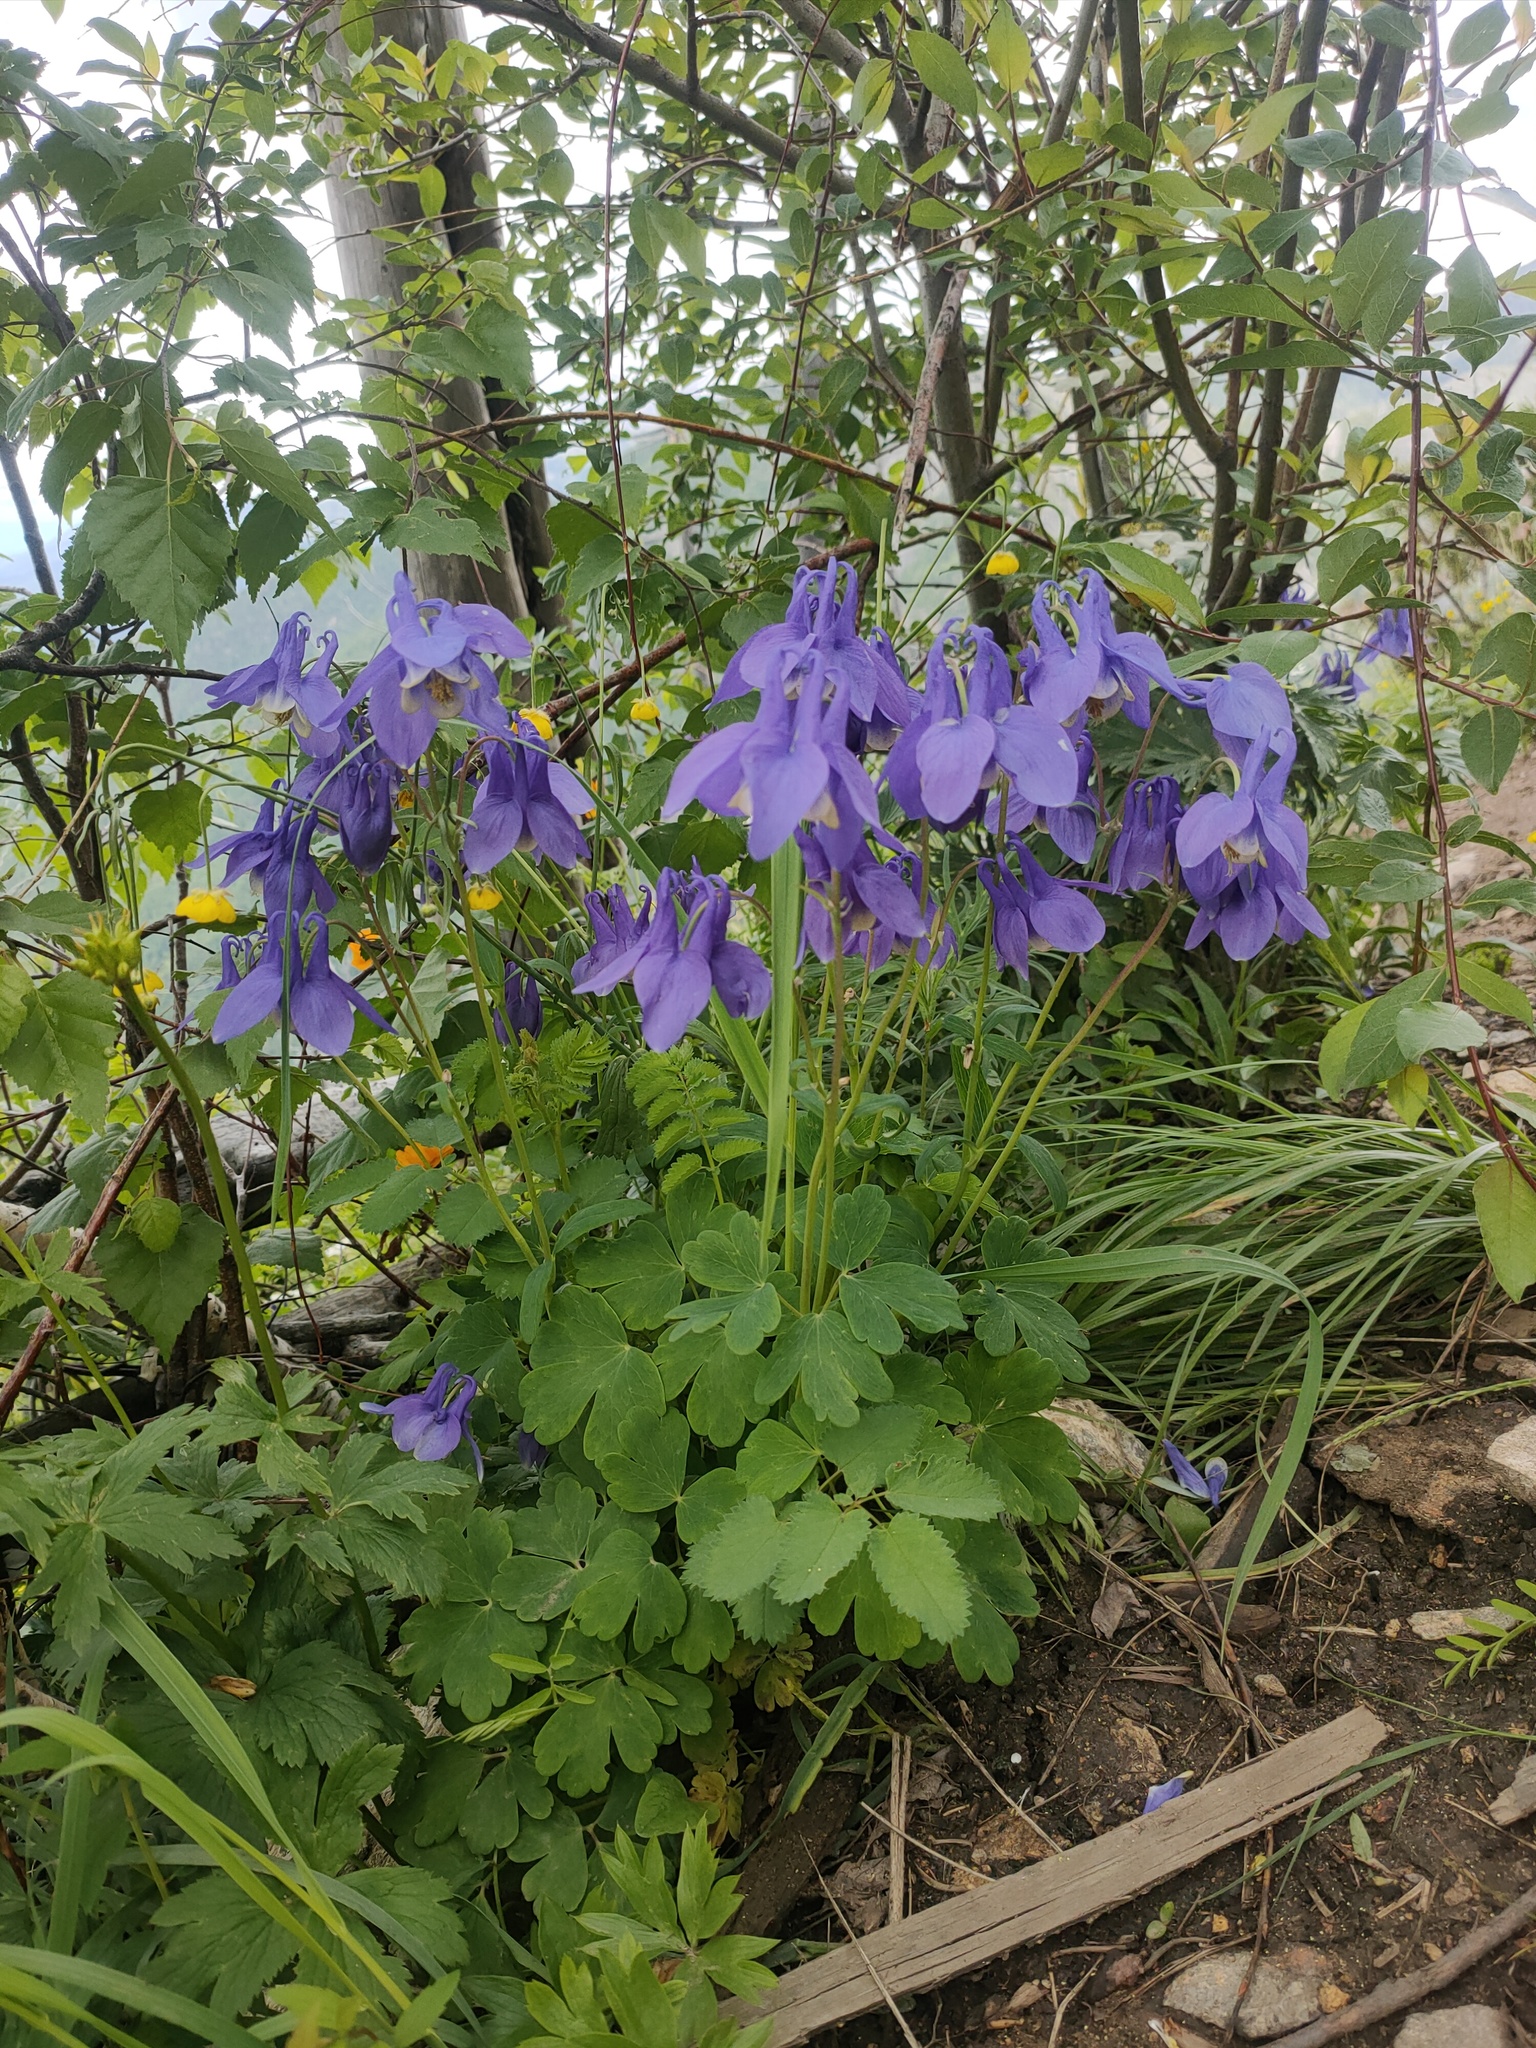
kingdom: Plantae
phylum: Tracheophyta
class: Magnoliopsida
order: Ranunculales
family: Ranunculaceae
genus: Aquilegia
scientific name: Aquilegia sibirica
